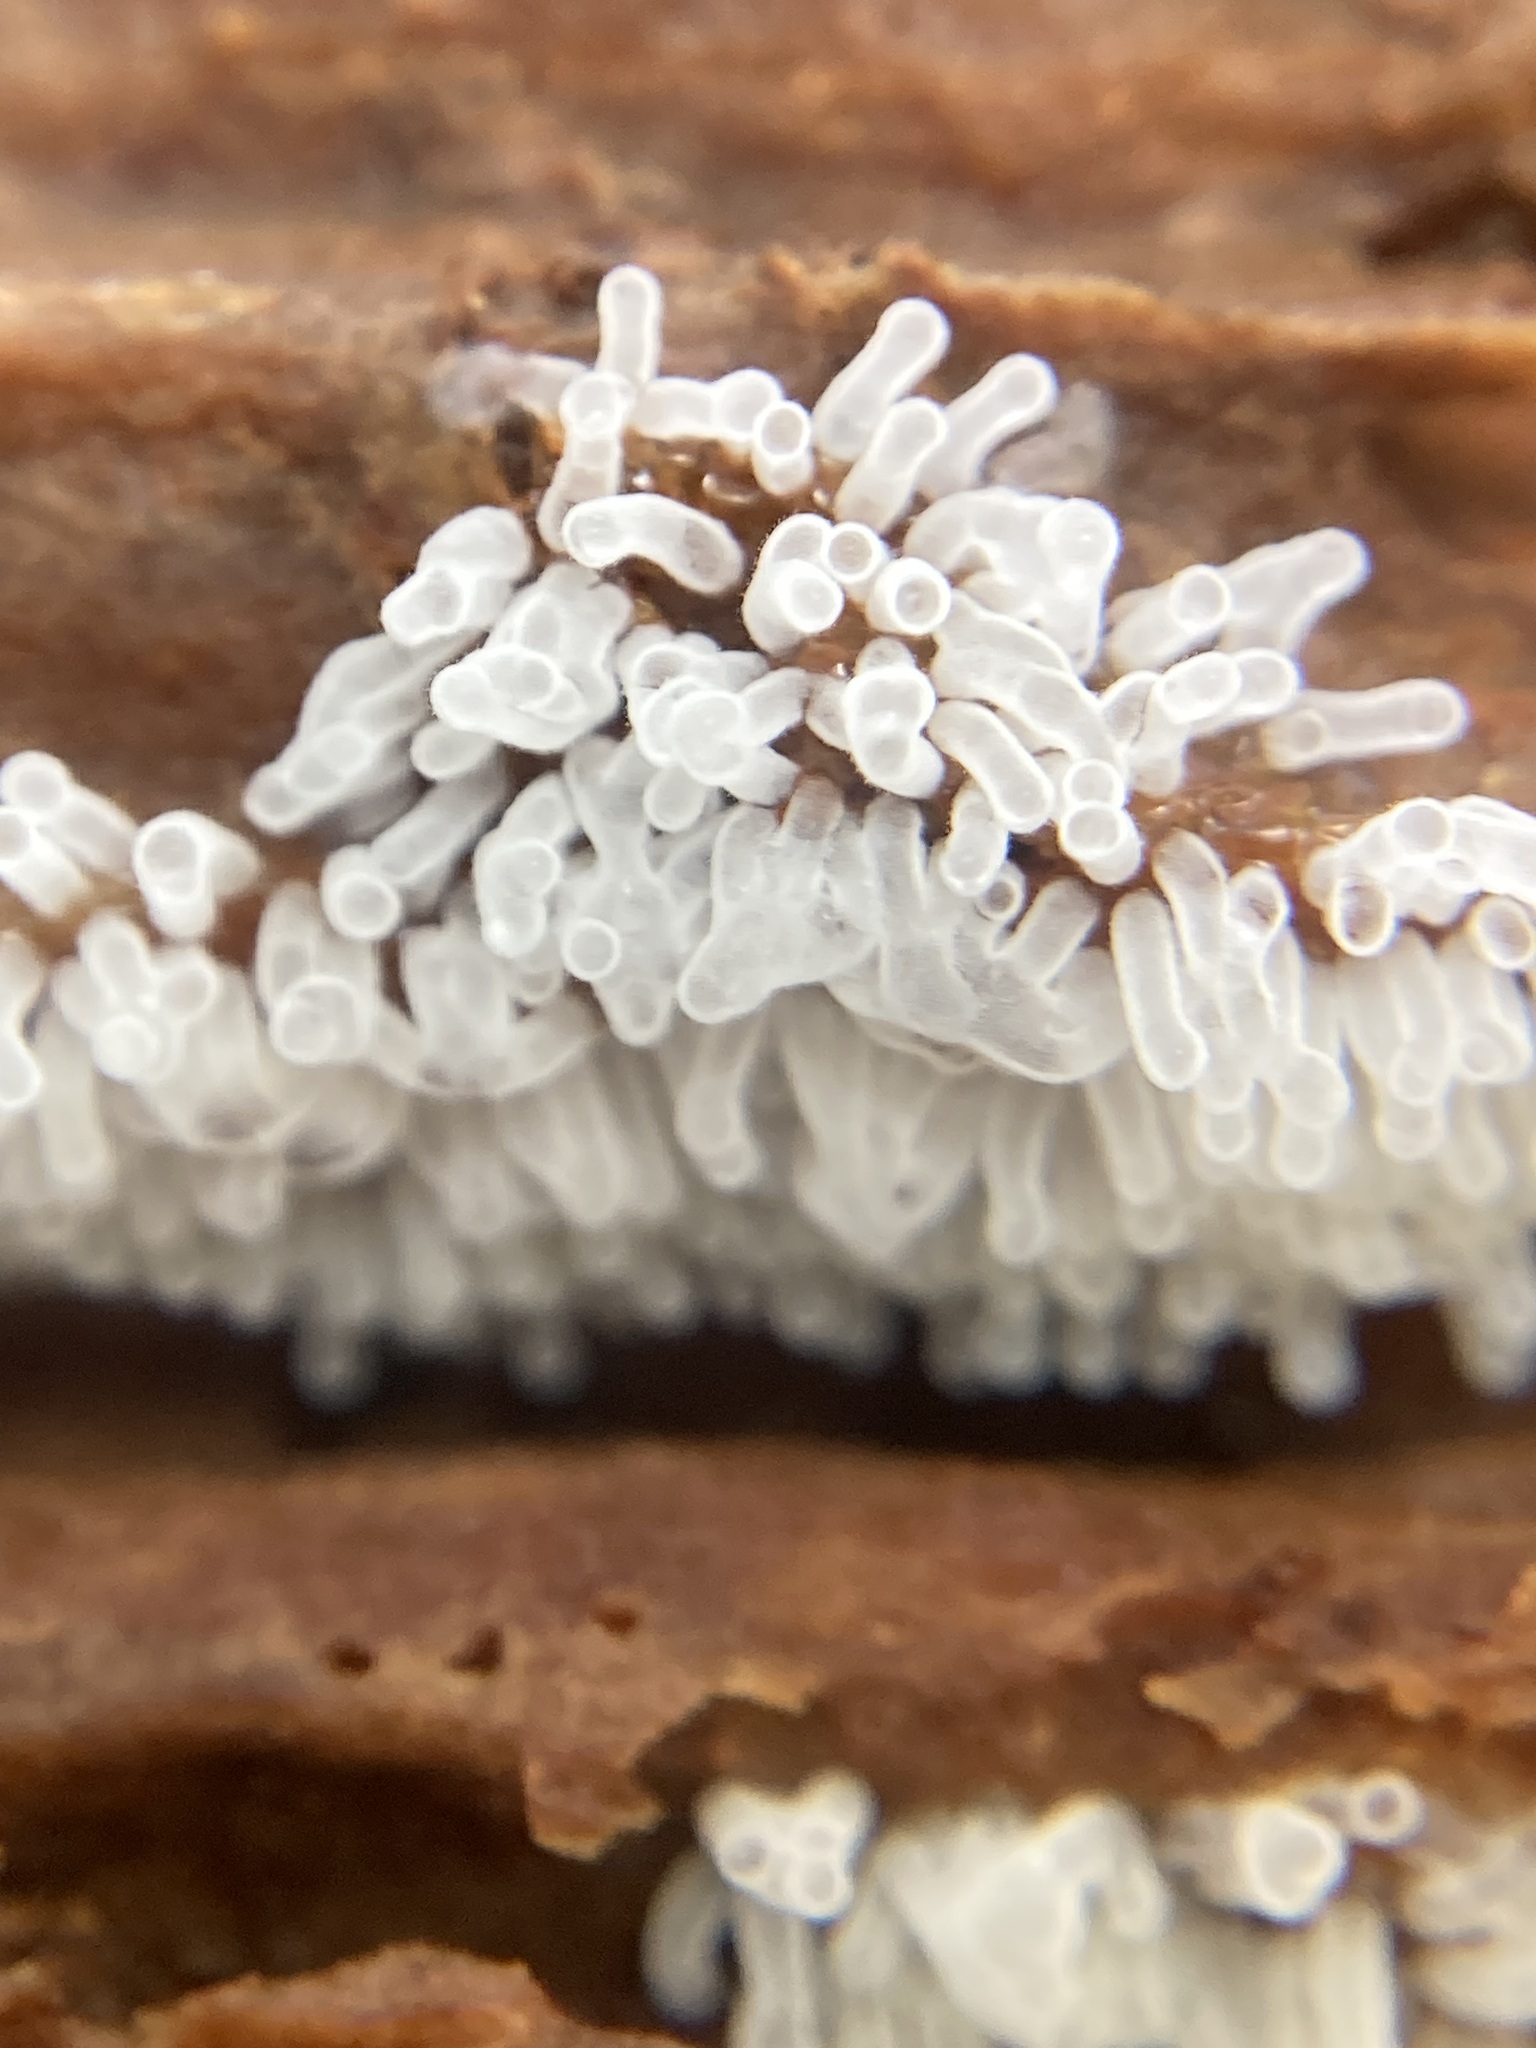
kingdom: Protozoa
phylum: Mycetozoa
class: Protosteliomycetes
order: Ceratiomyxales
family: Ceratiomyxaceae
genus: Ceratiomyxa
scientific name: Ceratiomyxa fruticulosa
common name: Honeycomb coral slime mold
